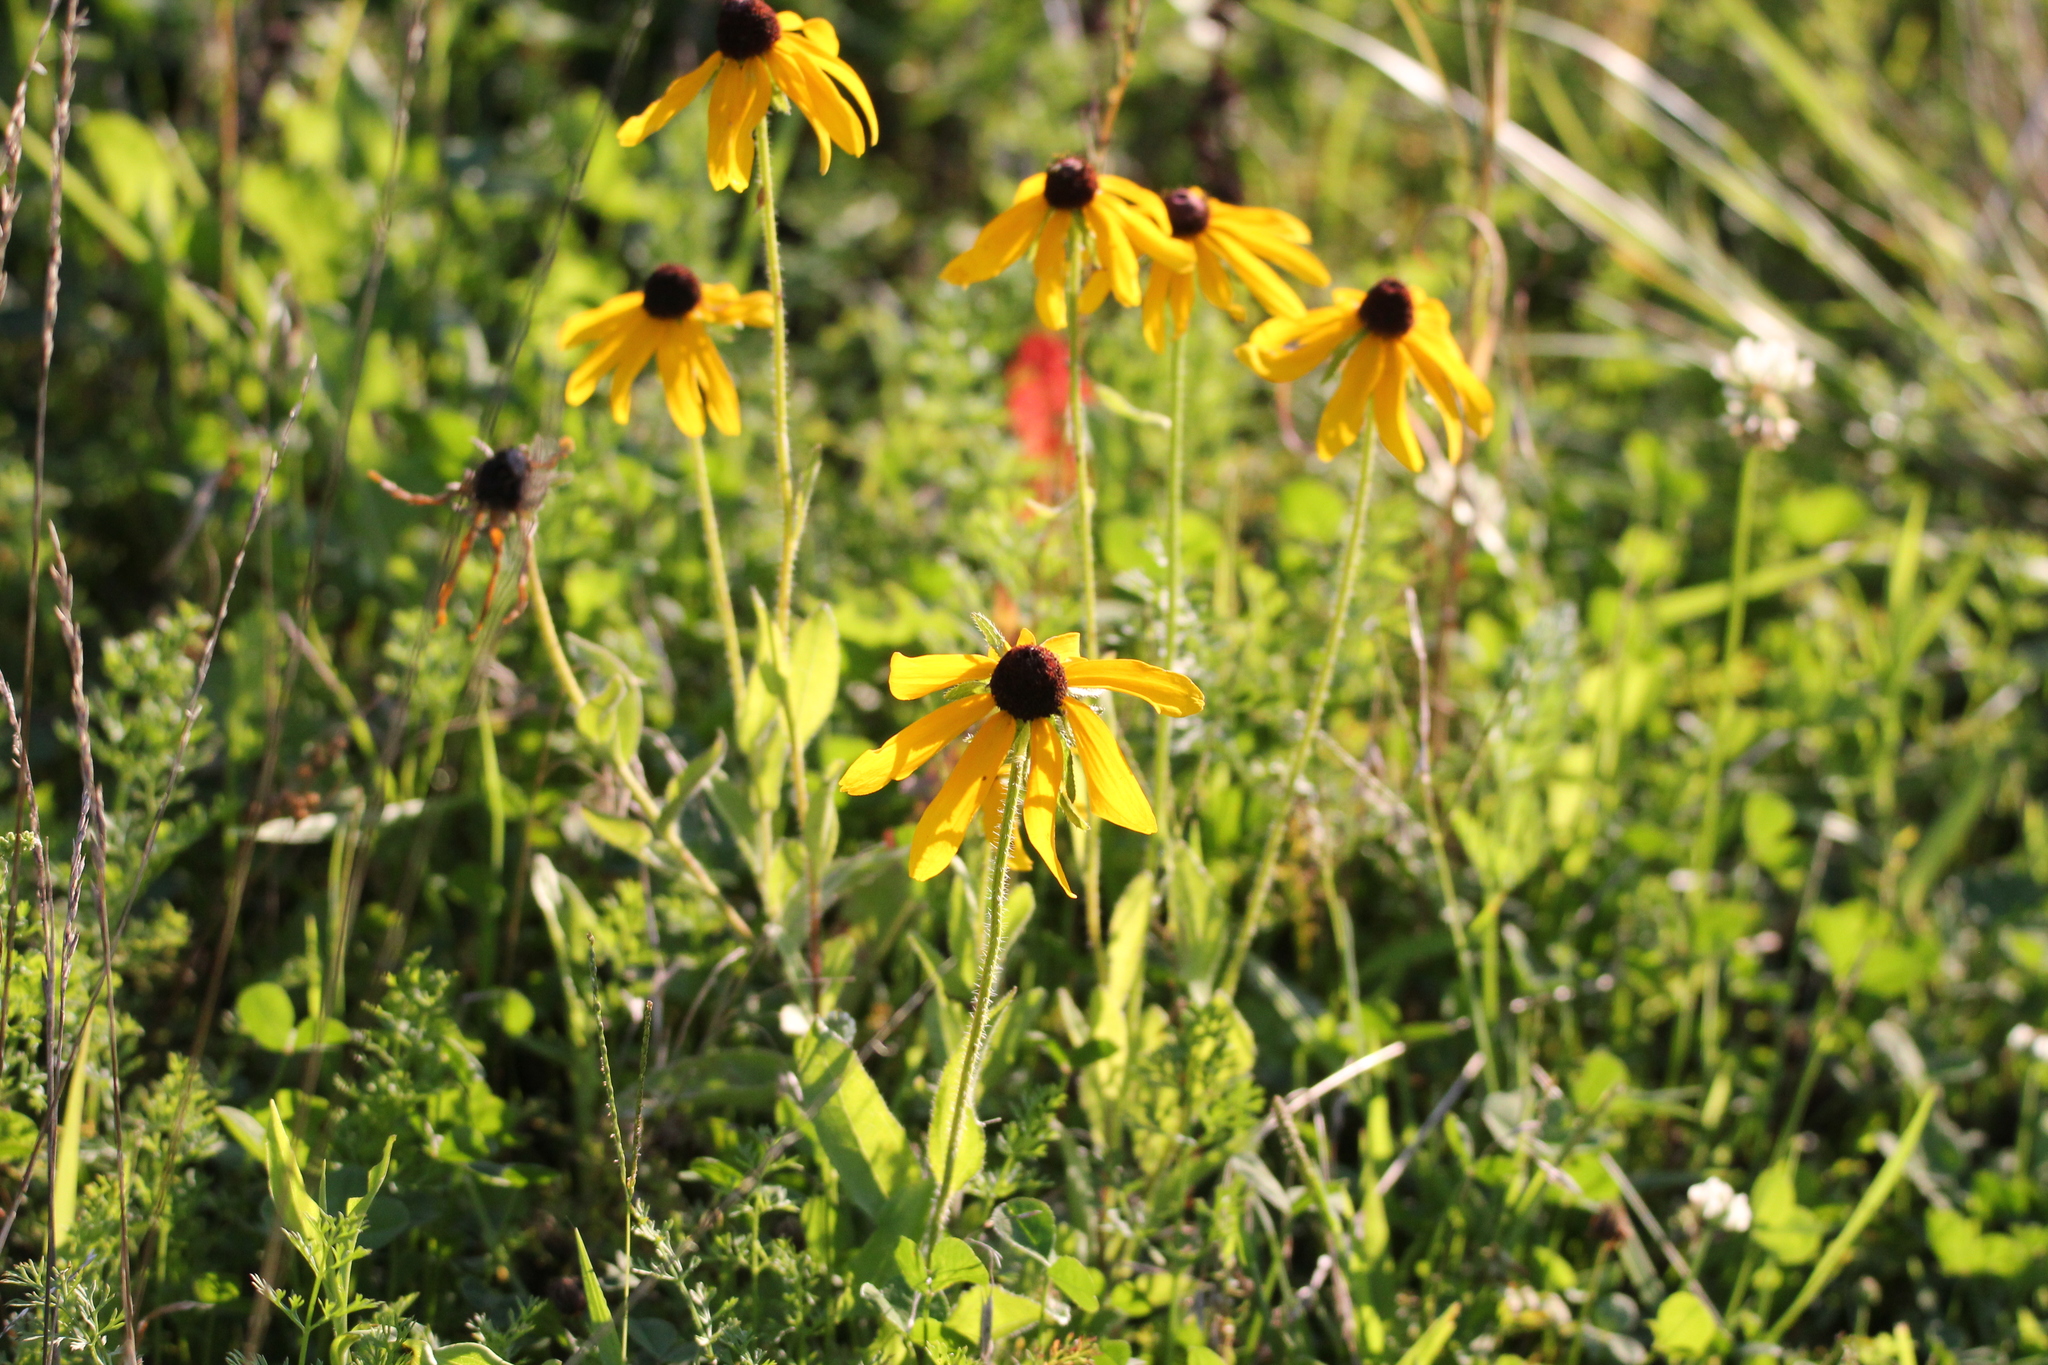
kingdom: Plantae
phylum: Tracheophyta
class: Magnoliopsida
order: Asterales
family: Asteraceae
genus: Rudbeckia
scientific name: Rudbeckia hirta
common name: Black-eyed-susan
